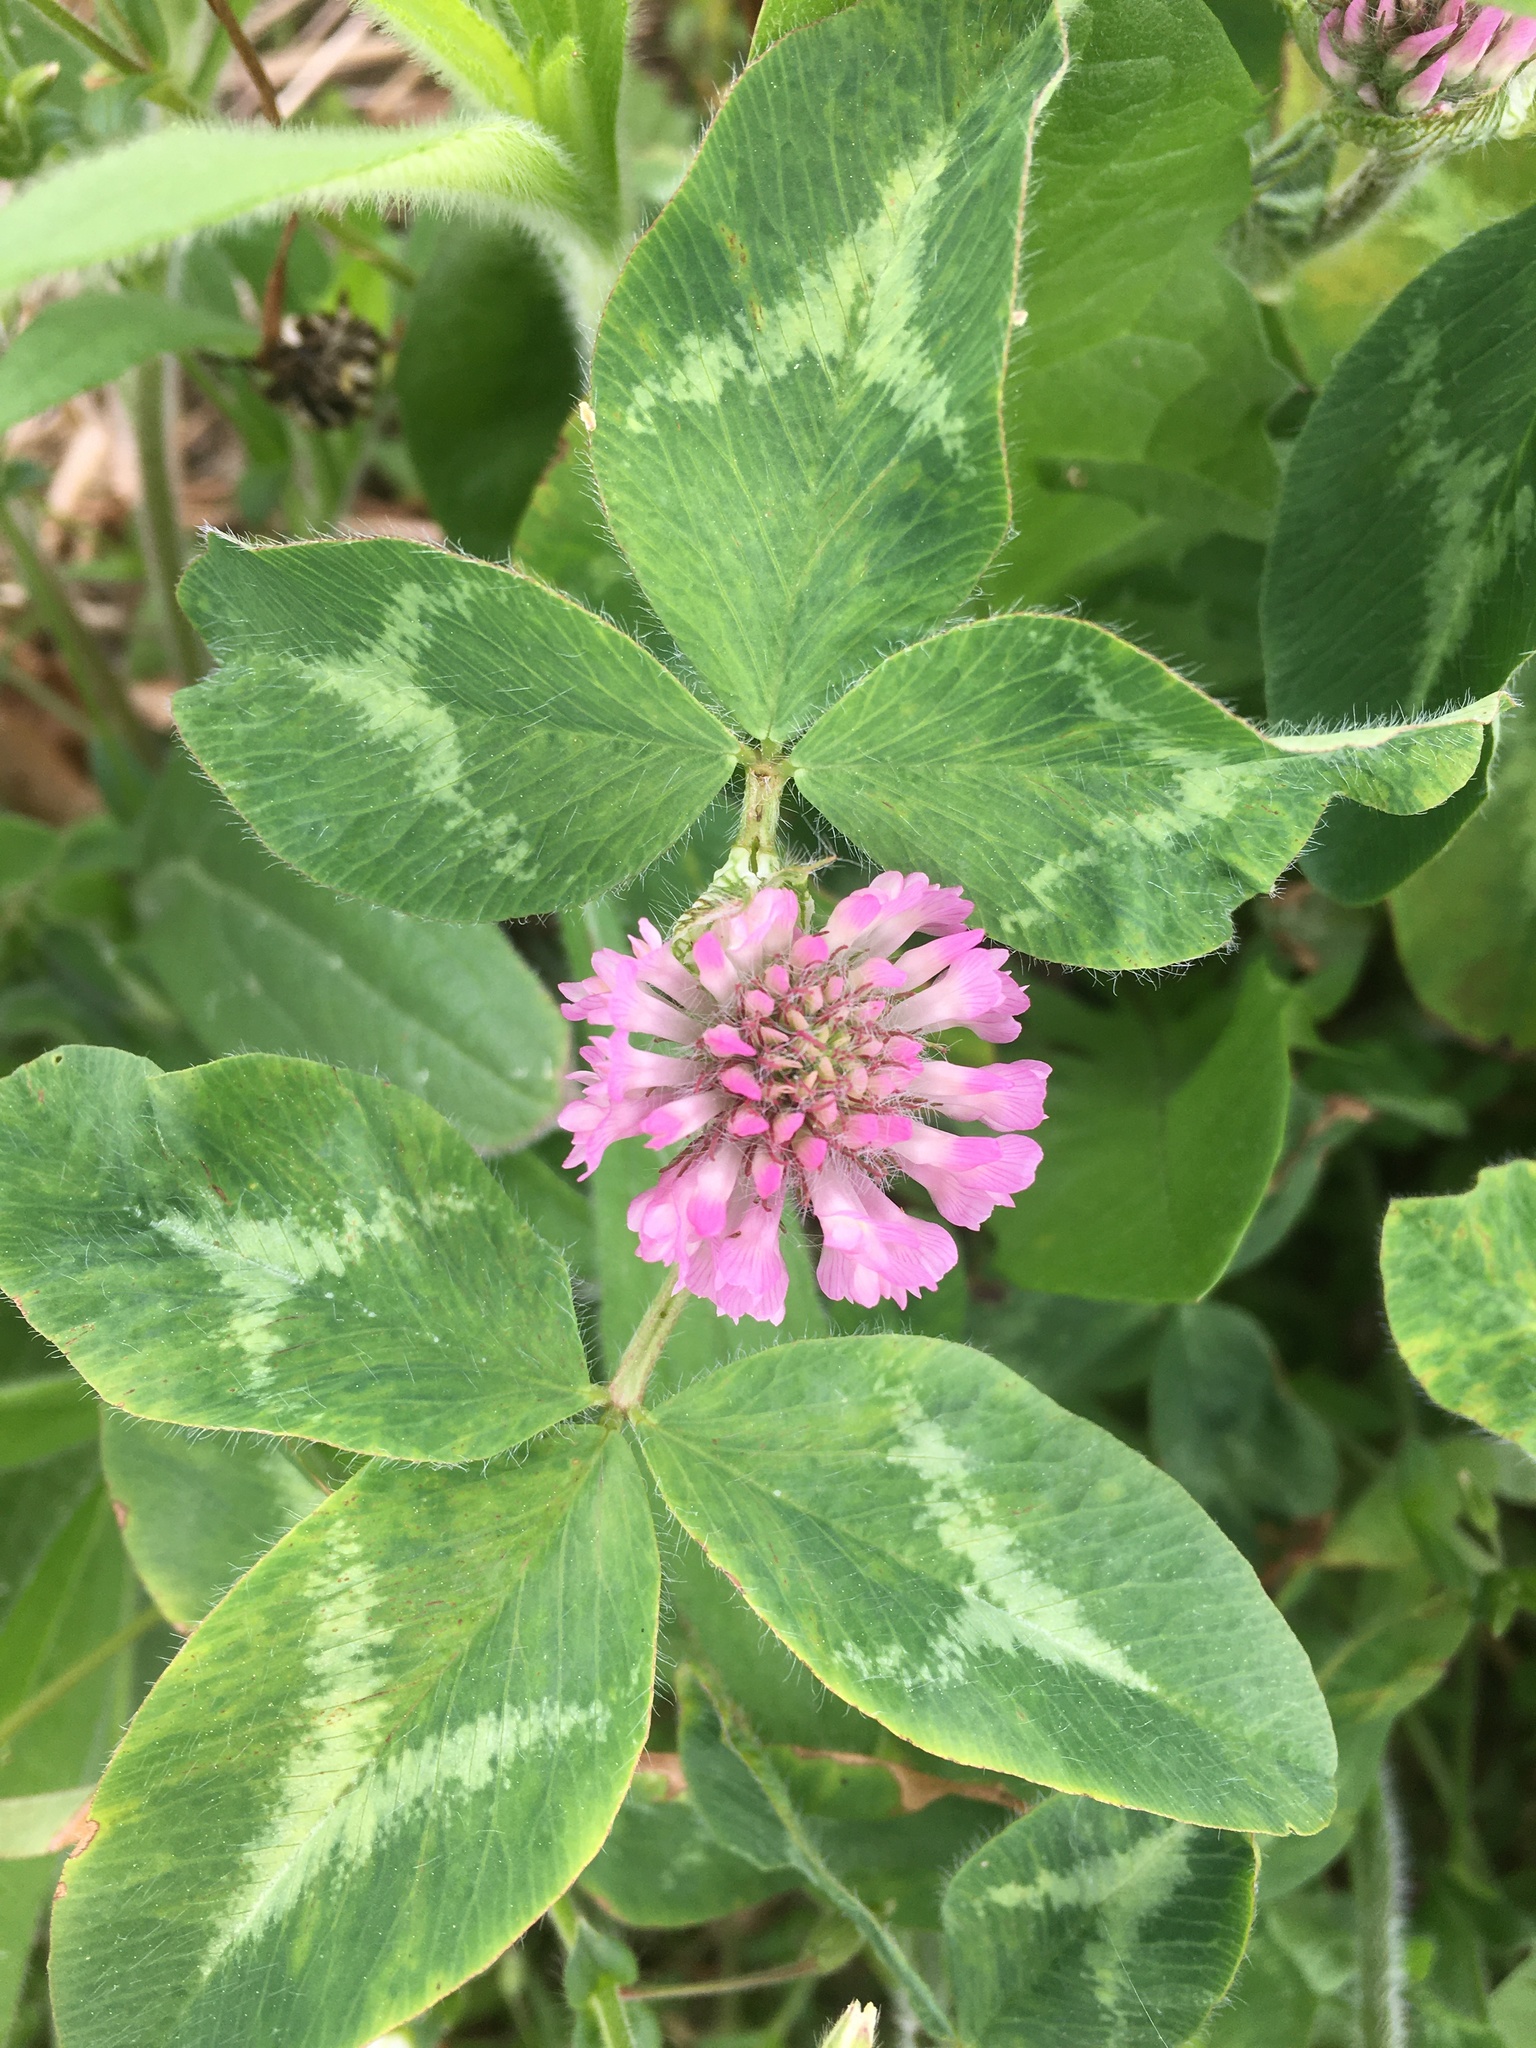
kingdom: Plantae
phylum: Tracheophyta
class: Magnoliopsida
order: Fabales
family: Fabaceae
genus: Trifolium
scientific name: Trifolium pratense
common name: Red clover
